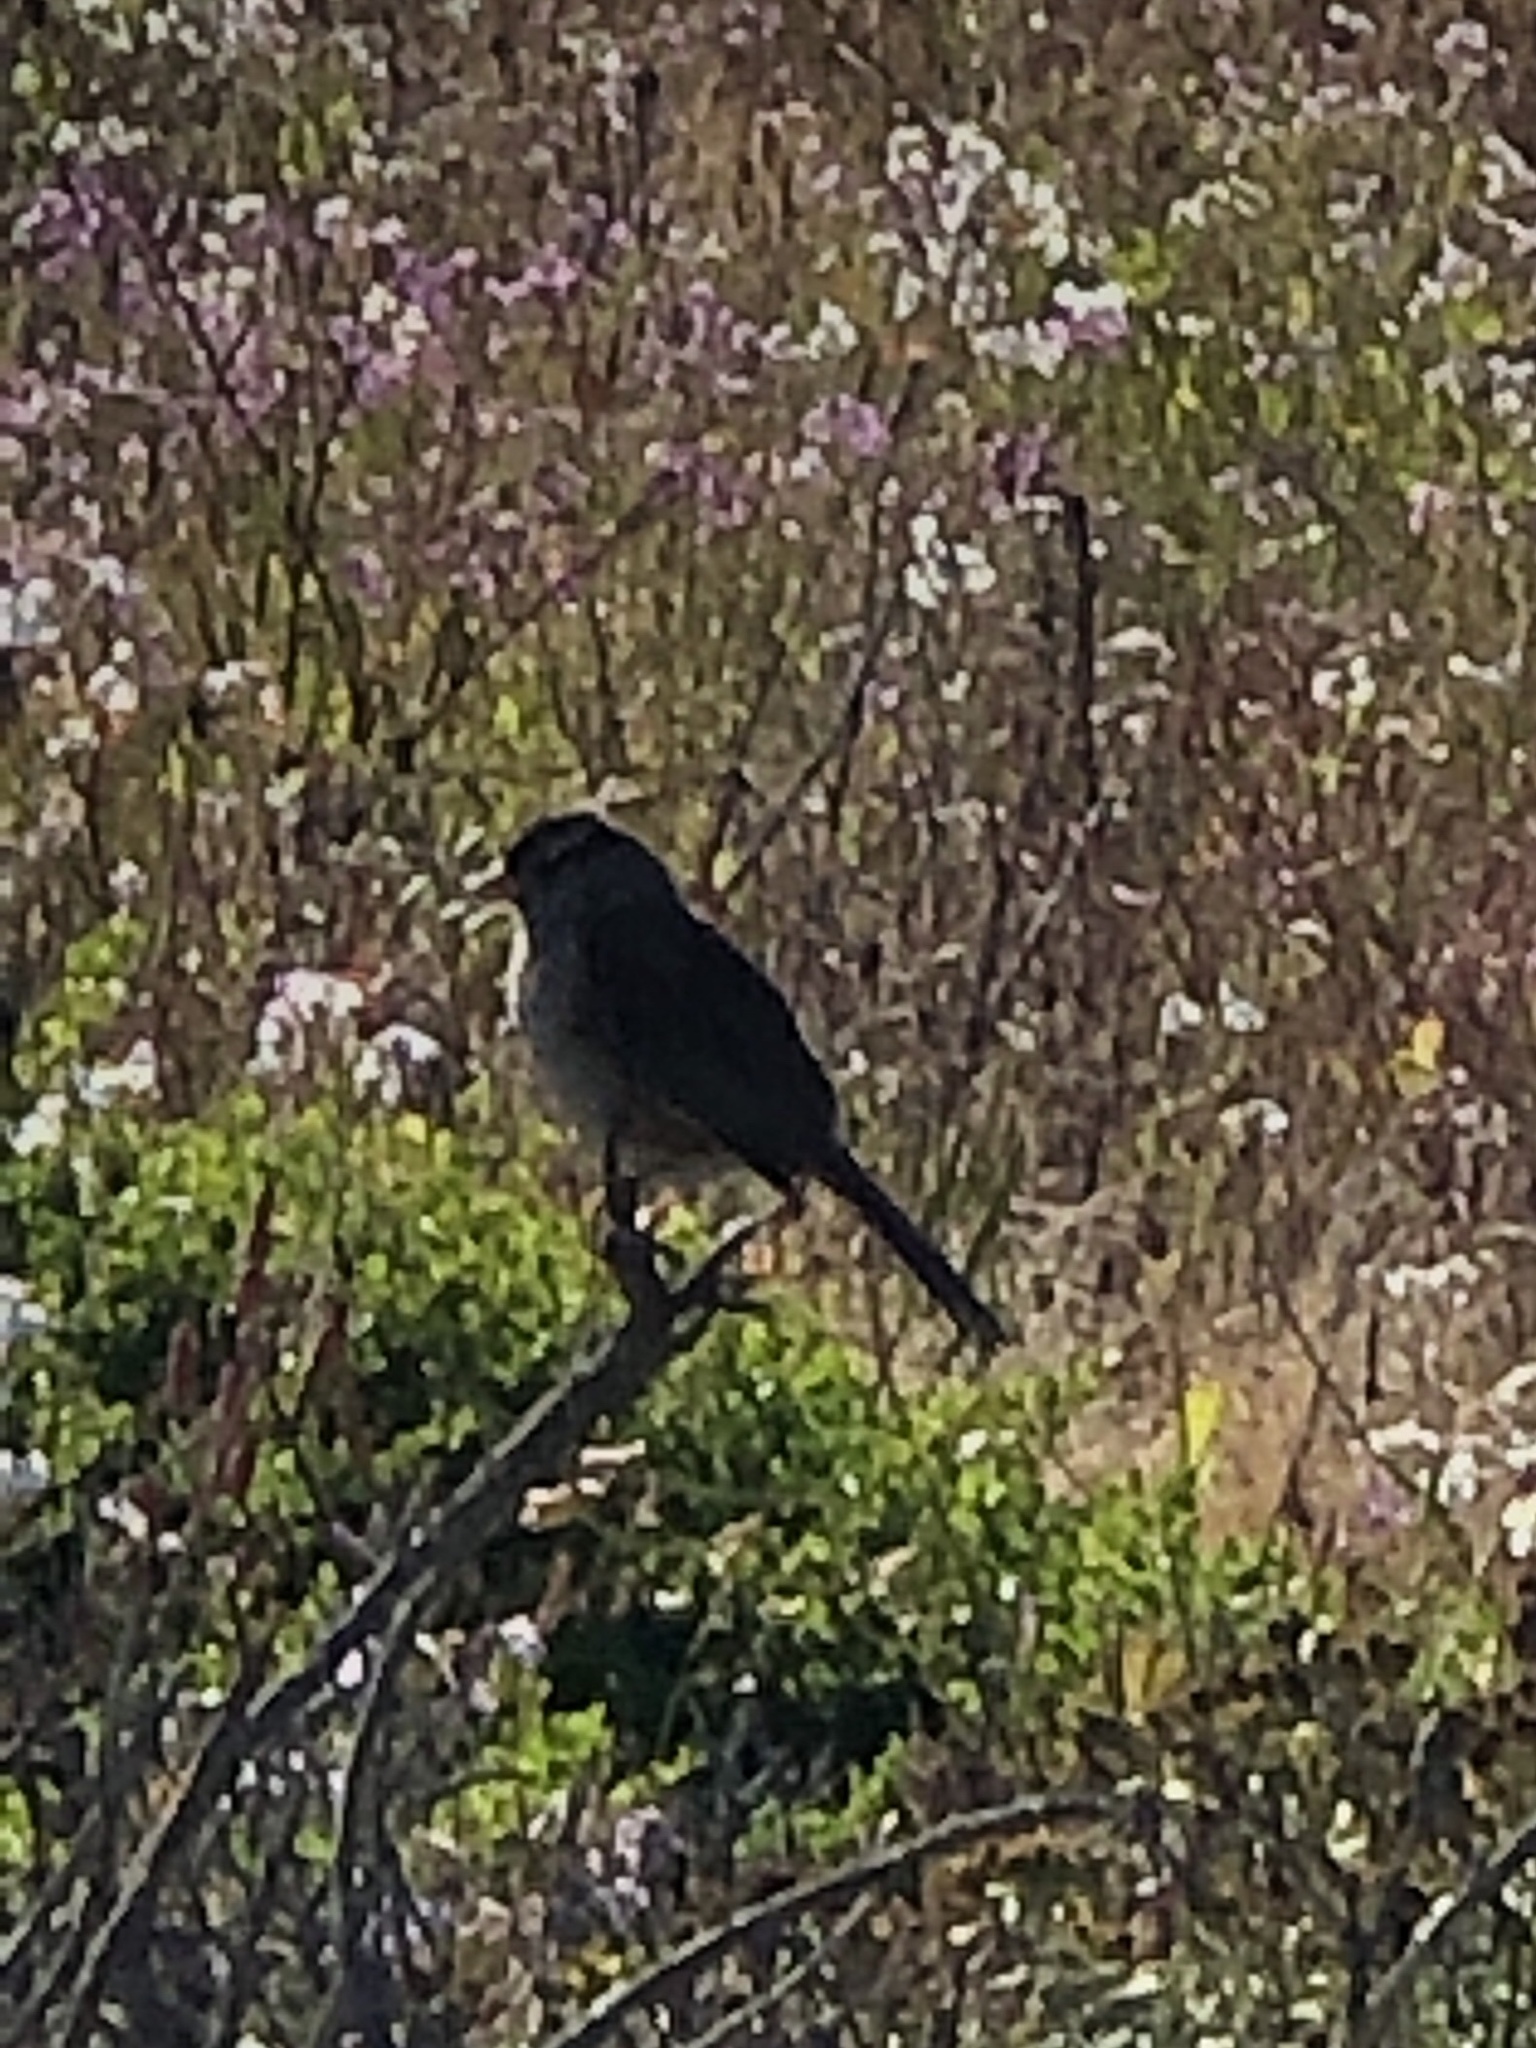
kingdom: Animalia
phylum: Chordata
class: Aves
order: Passeriformes
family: Passerellidae
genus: Zonotrichia
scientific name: Zonotrichia leucophrys
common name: White-crowned sparrow
